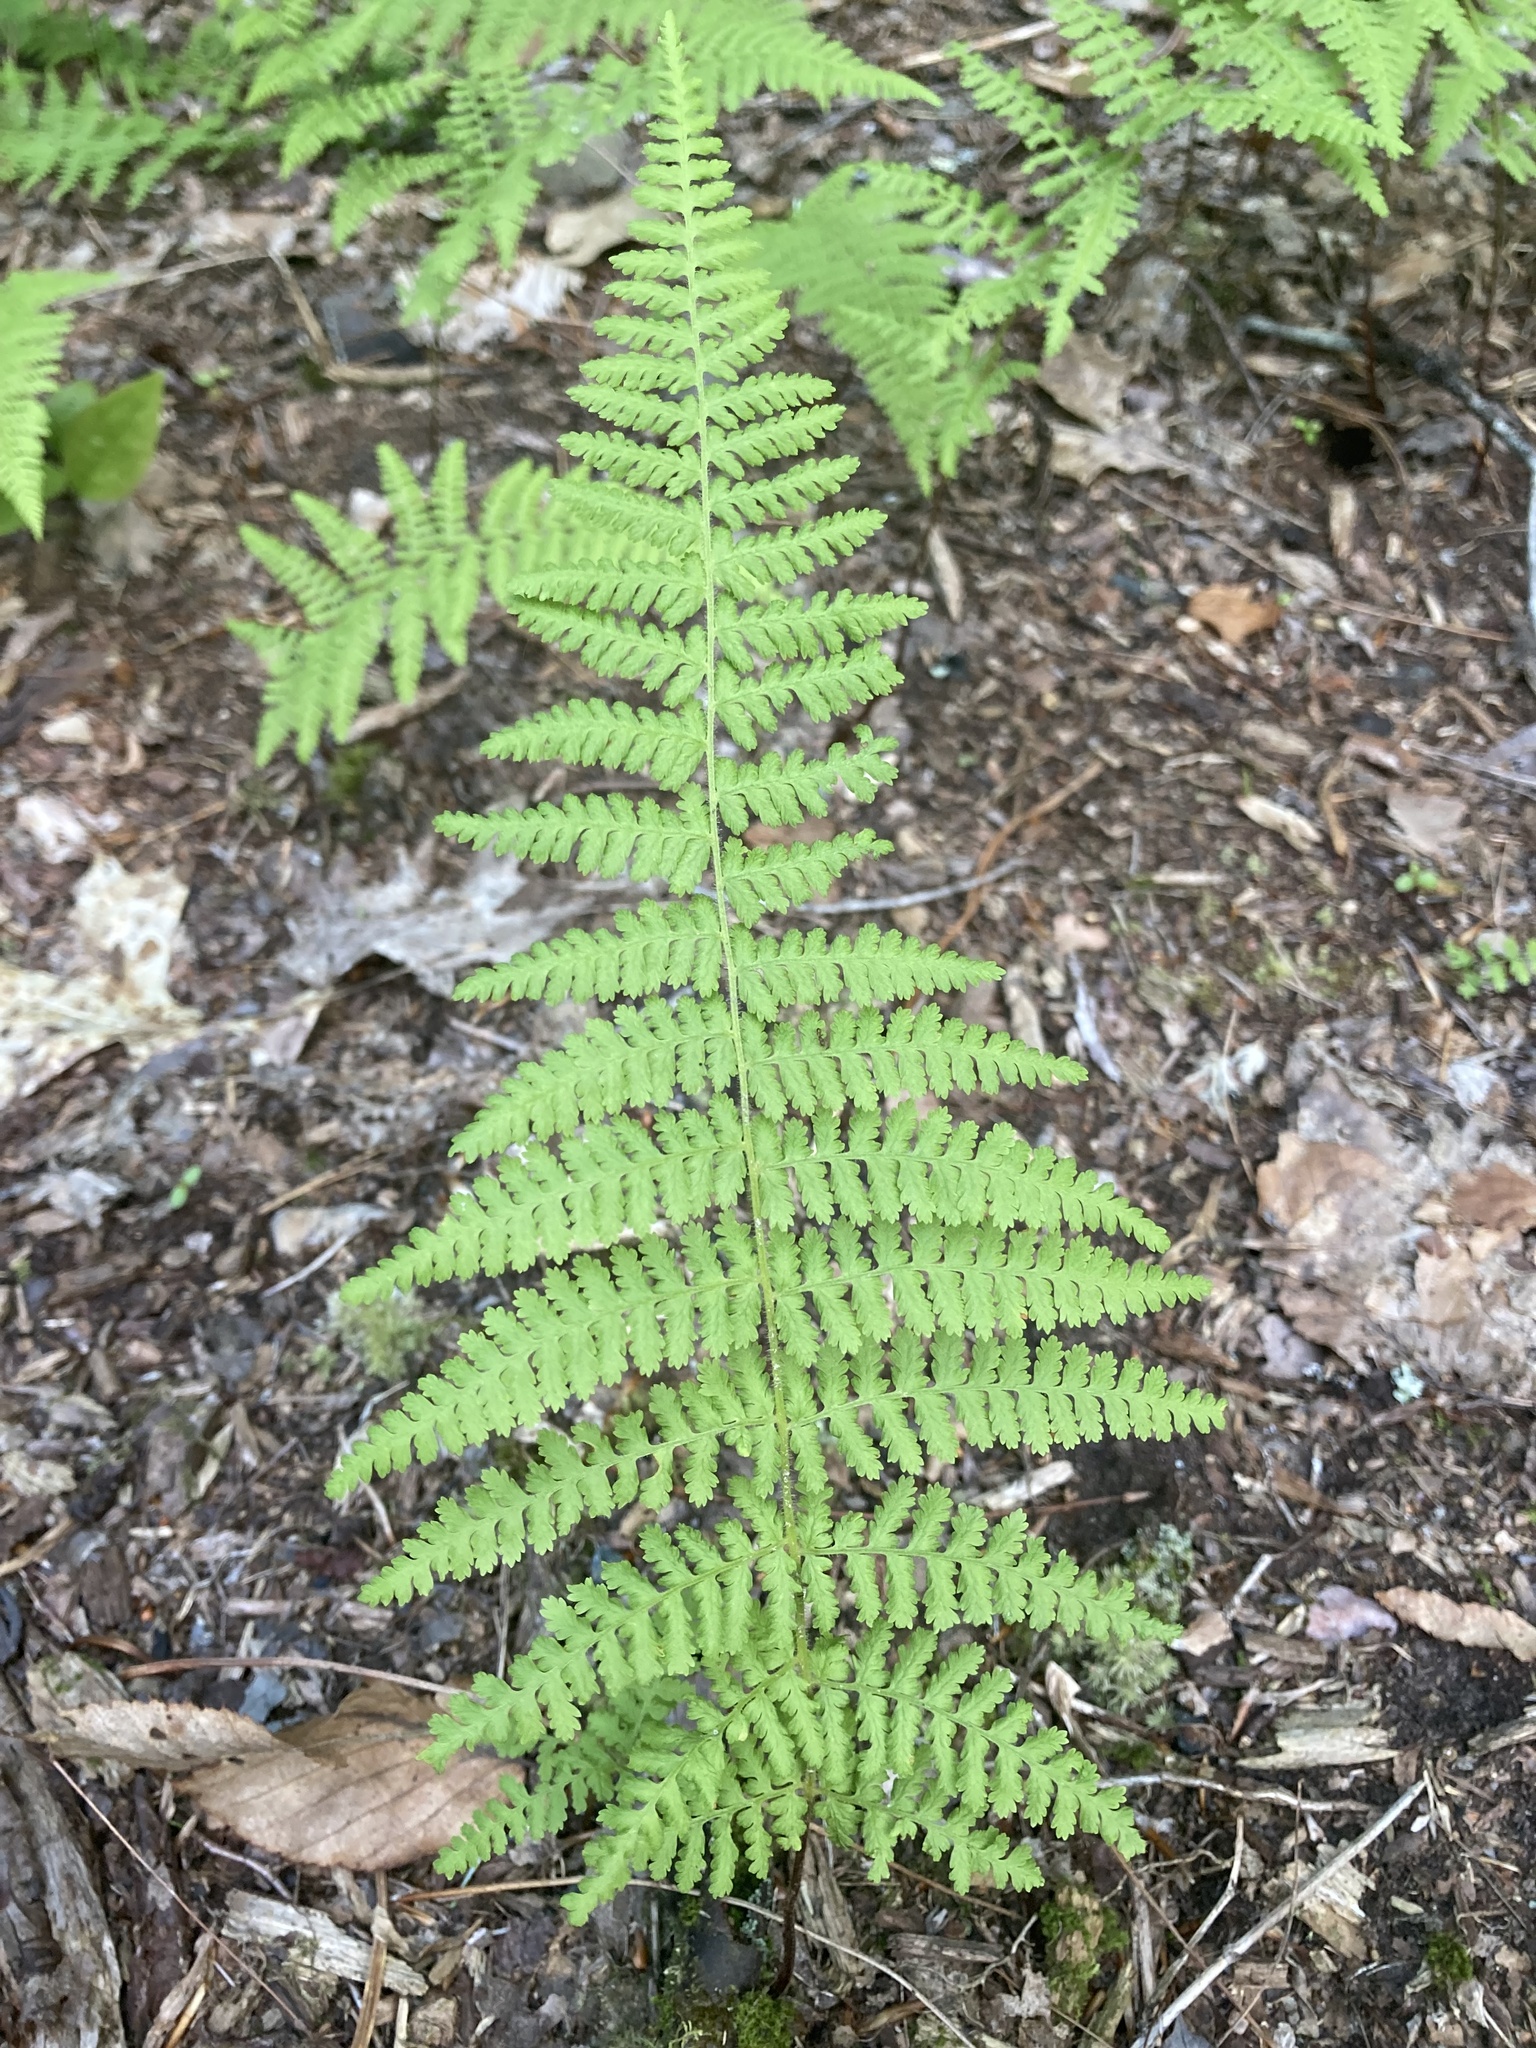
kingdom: Plantae
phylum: Tracheophyta
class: Polypodiopsida
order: Polypodiales
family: Dennstaedtiaceae
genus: Sitobolium
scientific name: Sitobolium punctilobum
